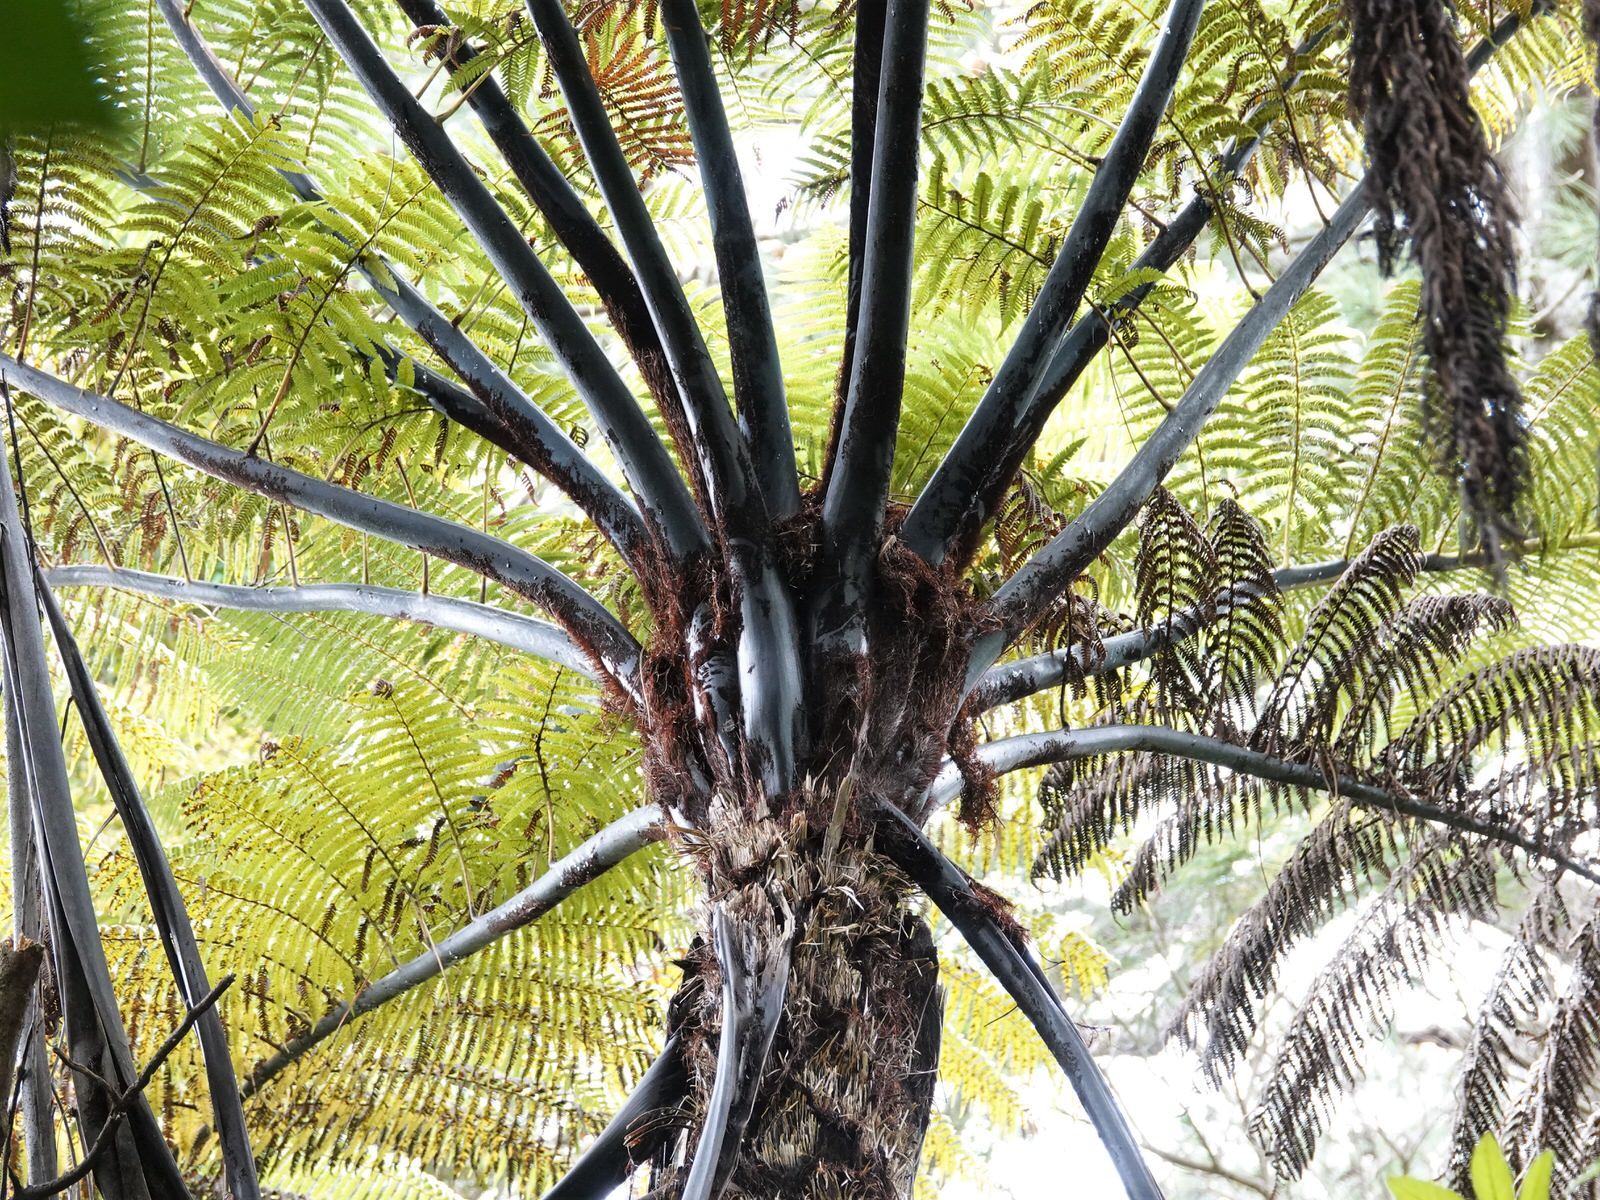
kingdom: Plantae
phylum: Tracheophyta
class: Polypodiopsida
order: Cyatheales
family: Cyatheaceae
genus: Sphaeropteris
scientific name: Sphaeropteris medullaris
